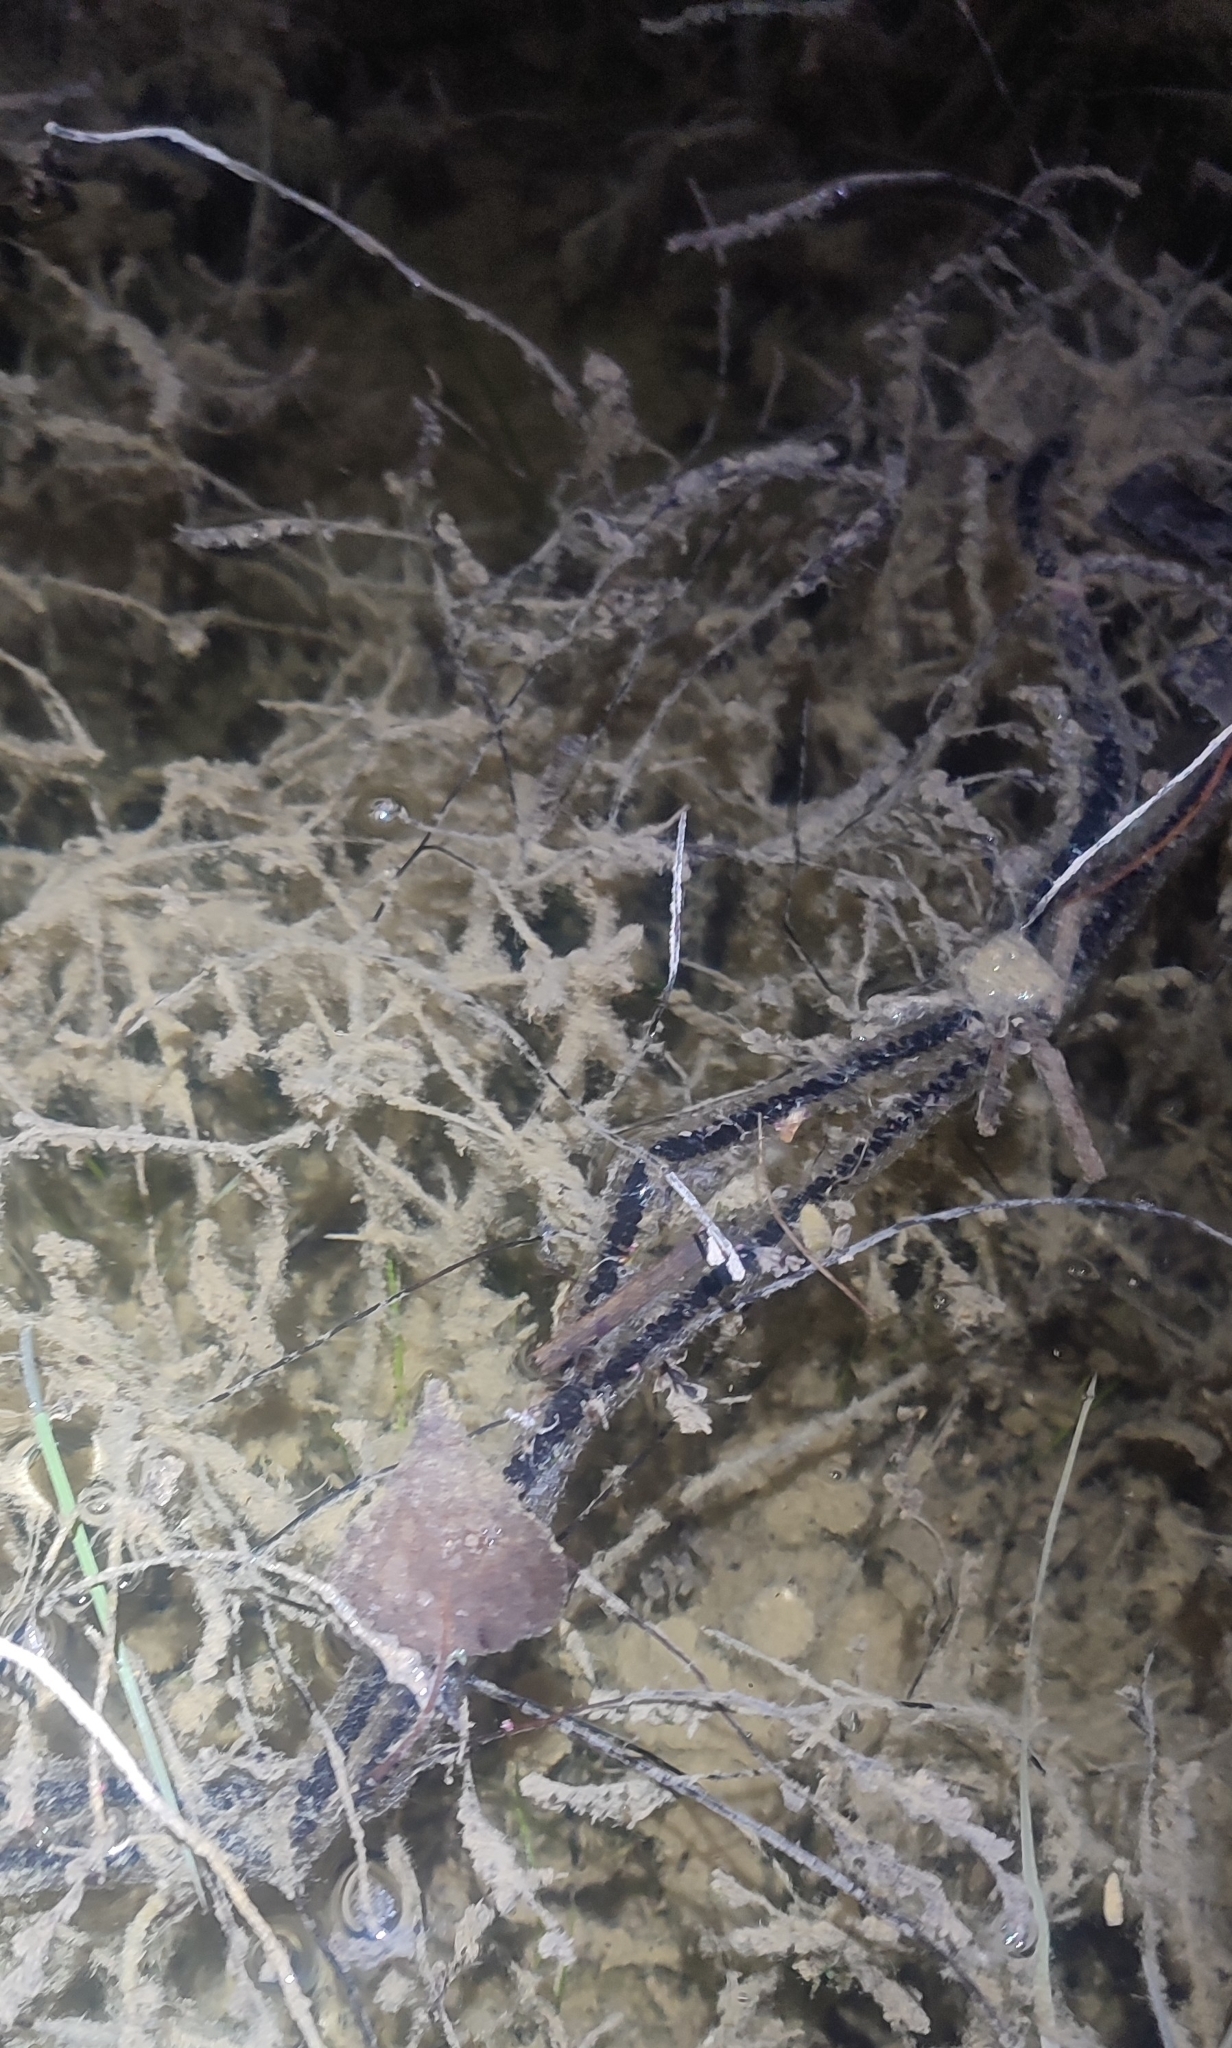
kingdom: Animalia
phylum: Chordata
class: Amphibia
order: Anura
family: Bufonidae
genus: Epidalea
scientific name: Epidalea calamita
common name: Natterjack toad
